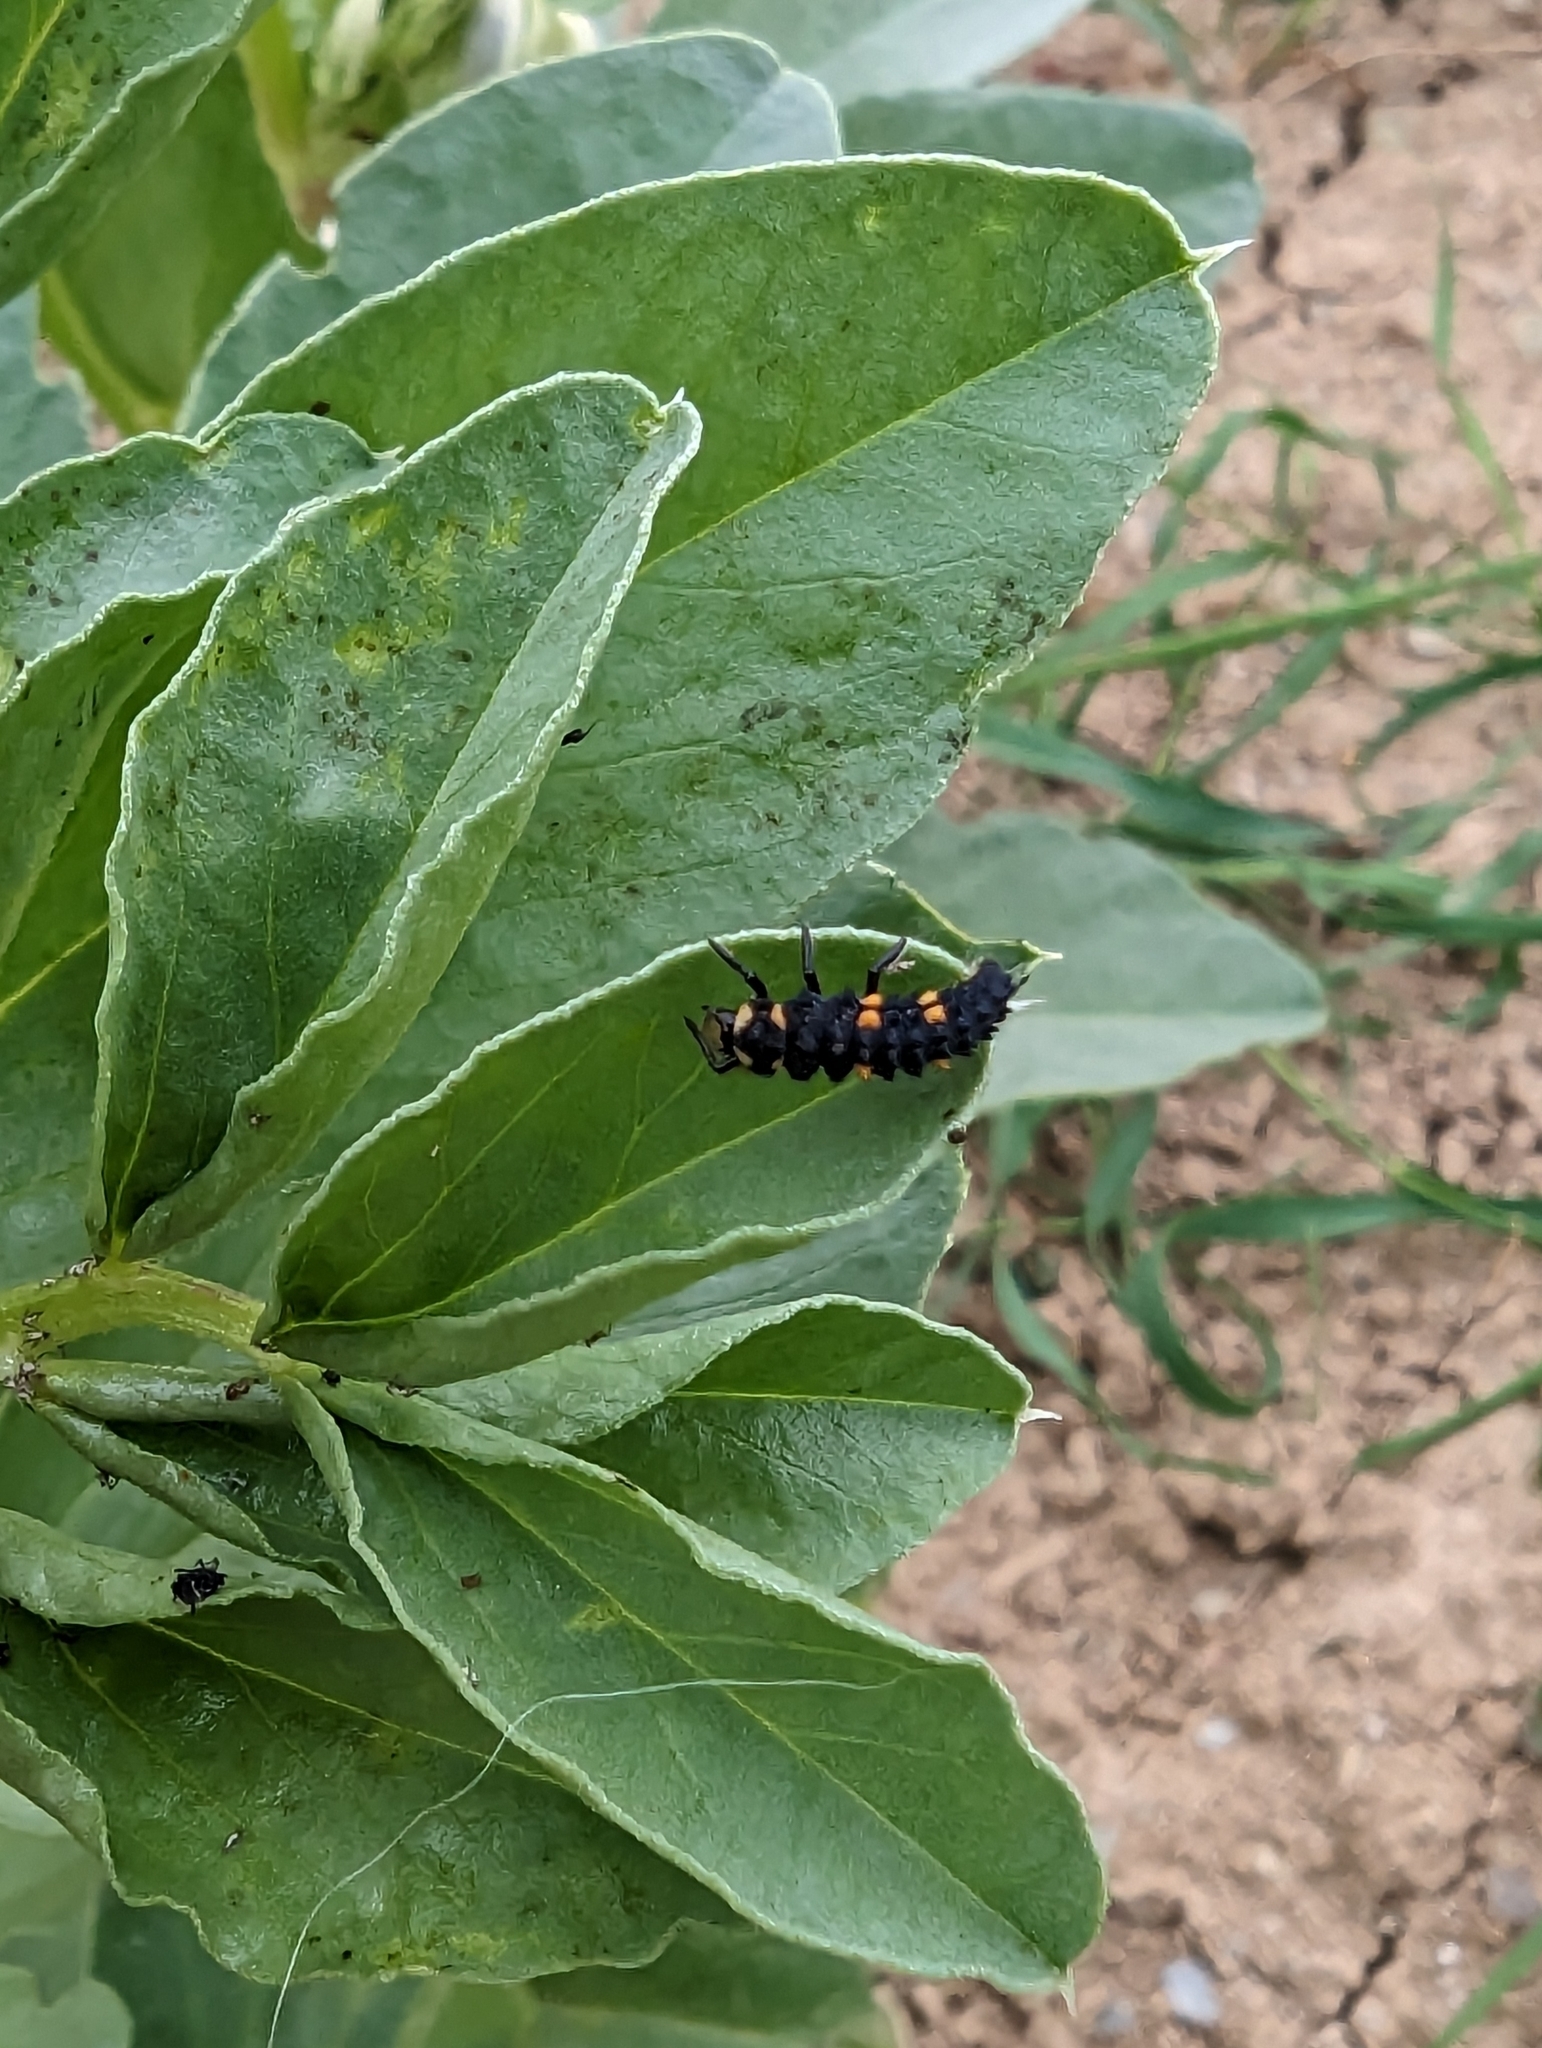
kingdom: Animalia
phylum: Arthropoda
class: Insecta
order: Coleoptera
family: Coccinellidae
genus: Coccinella
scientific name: Coccinella septempunctata
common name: Sevenspotted lady beetle
